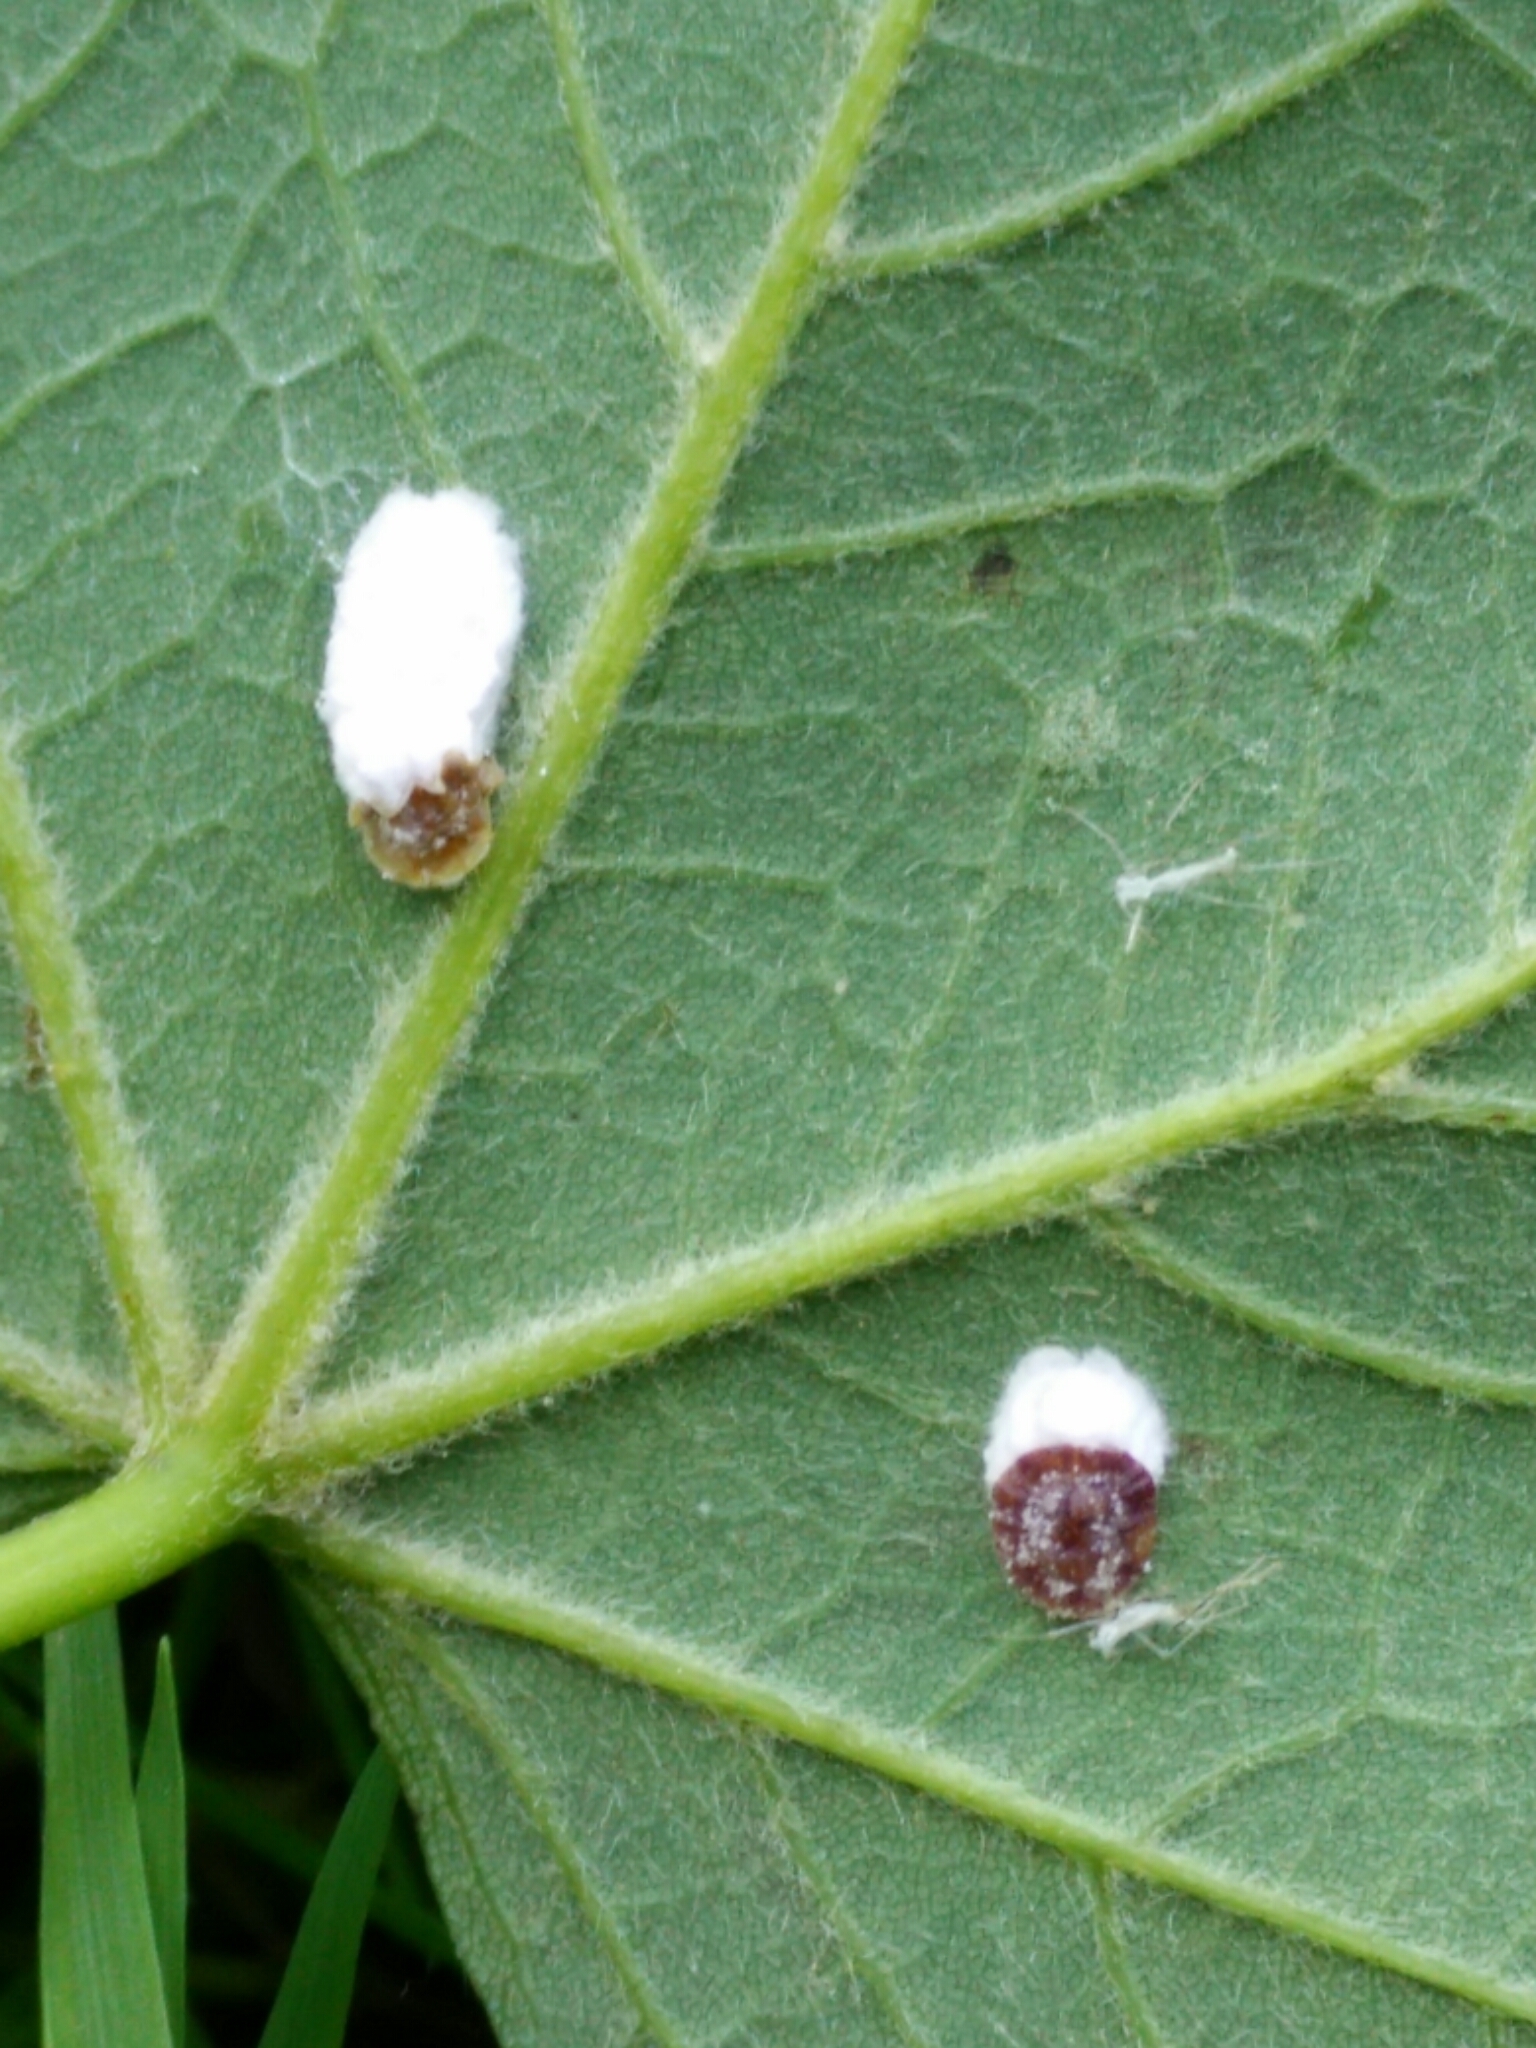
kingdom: Animalia
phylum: Arthropoda
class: Insecta
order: Hemiptera
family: Coccidae
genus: Pulvinaria
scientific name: Pulvinaria regalis
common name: Horse chestnut scale
